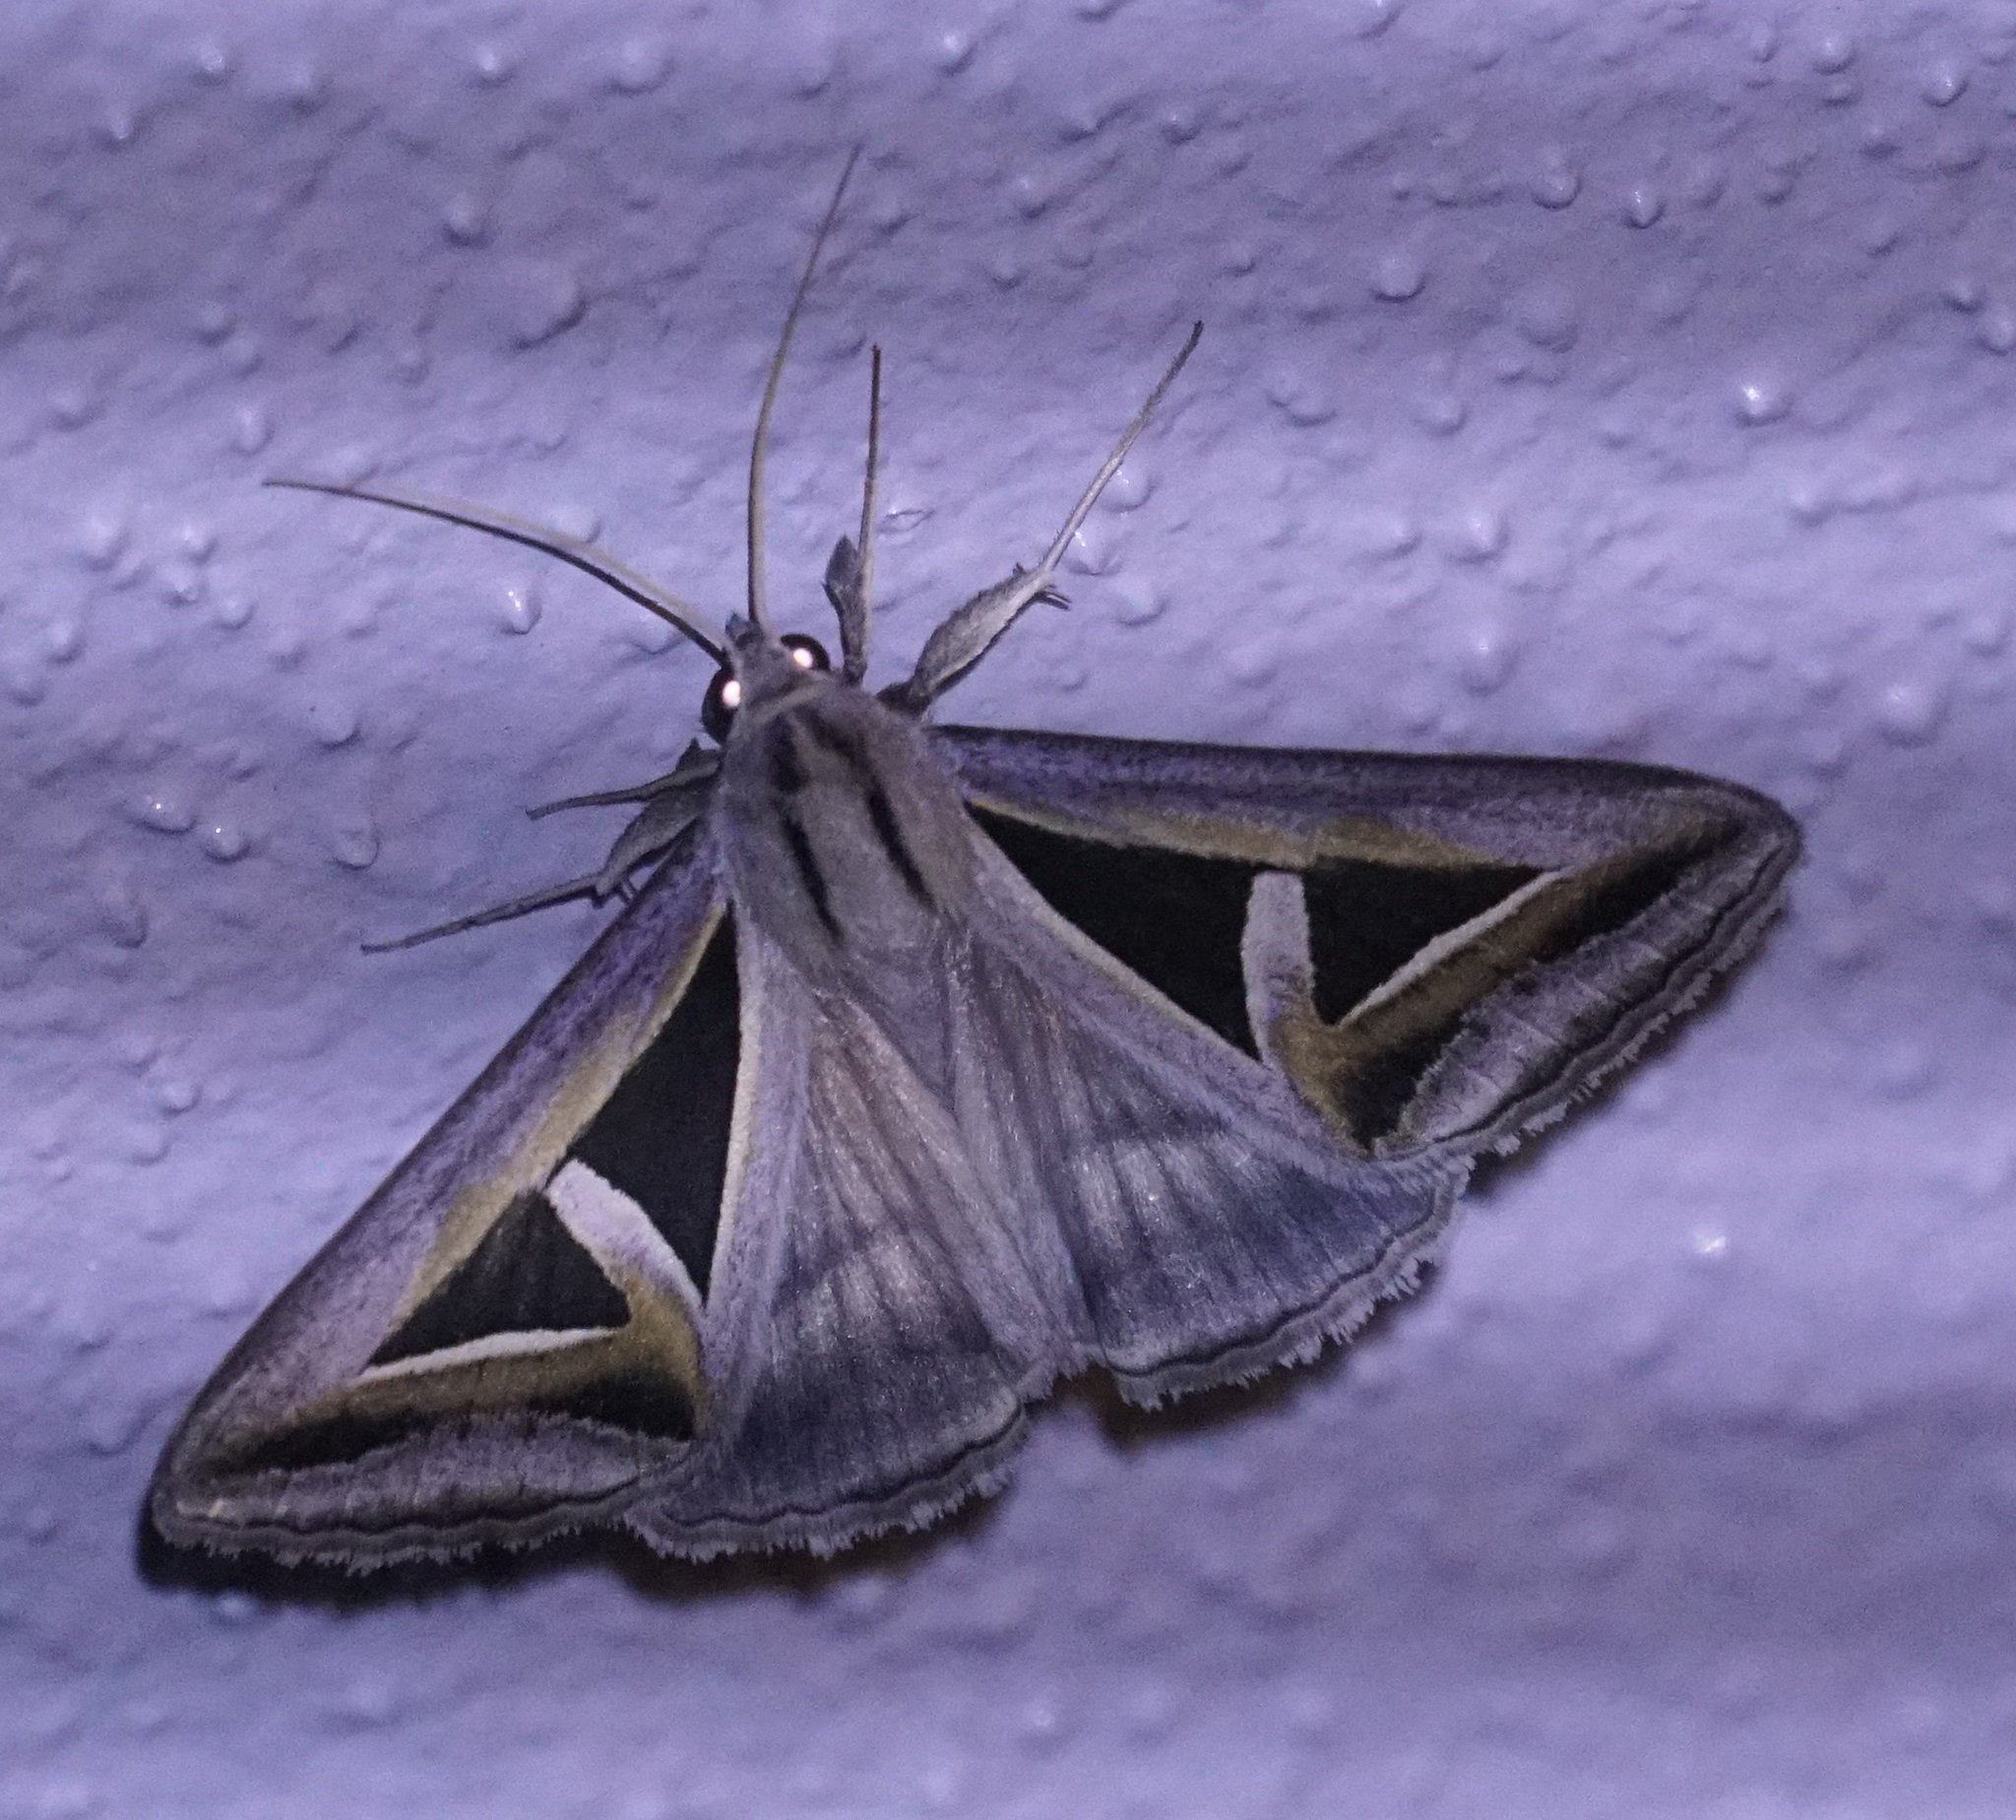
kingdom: Animalia
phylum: Arthropoda
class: Insecta
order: Lepidoptera
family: Erebidae
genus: Trigonodes
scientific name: Trigonodes hyppasia
